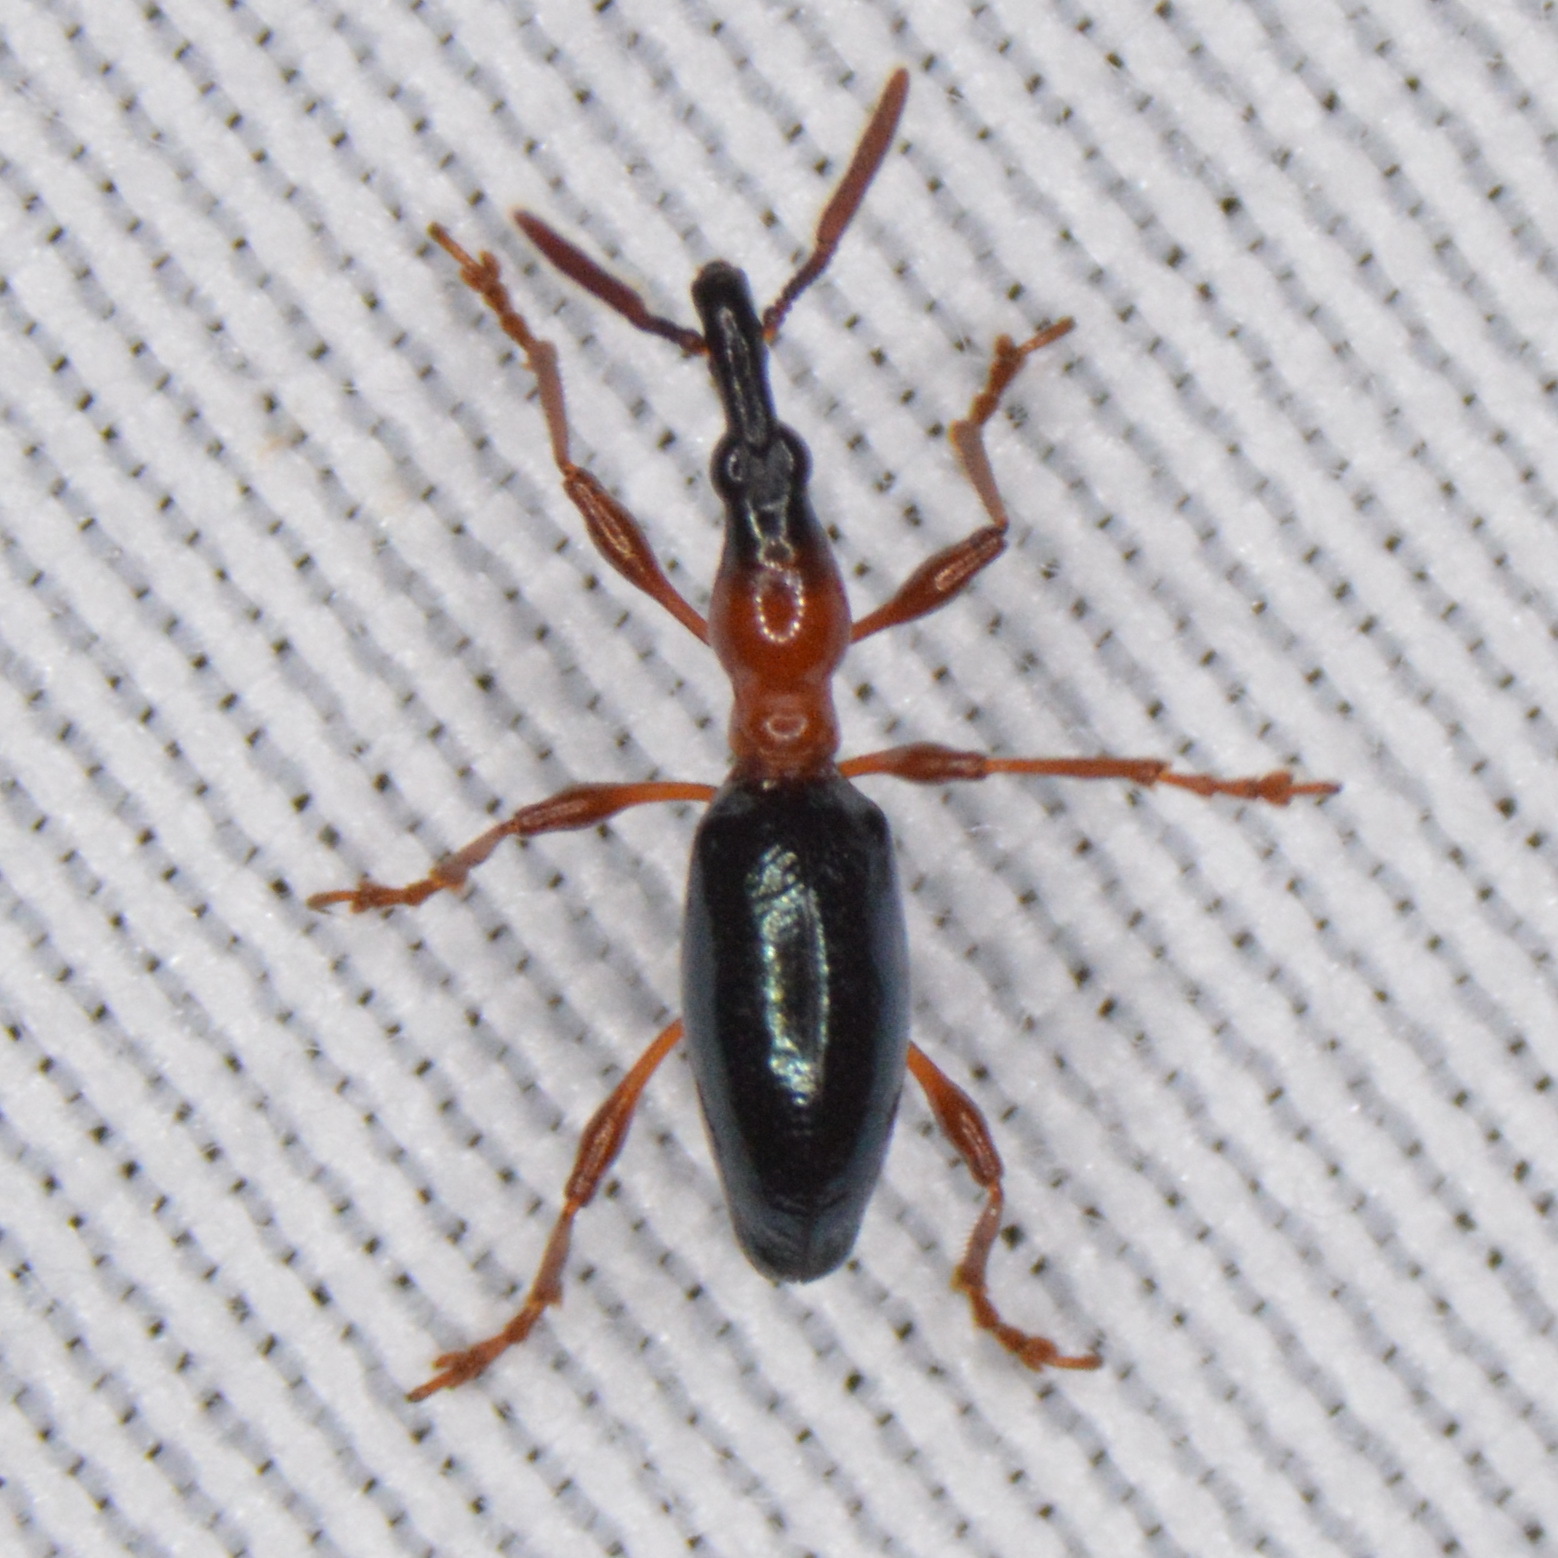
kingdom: Animalia
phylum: Arthropoda
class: Insecta
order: Coleoptera
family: Brentidae
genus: Cylas
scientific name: Cylas formicarius
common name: Sweetpotato weevil
